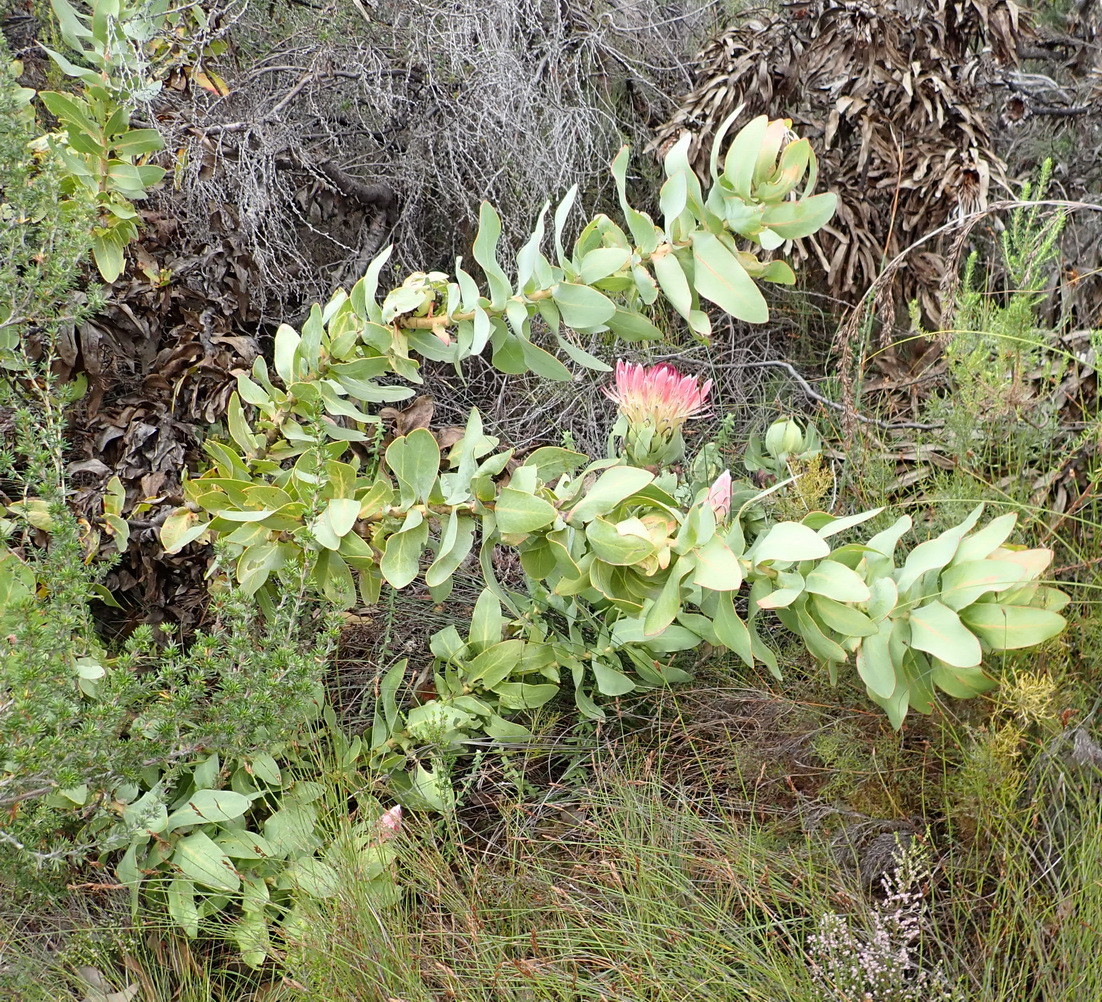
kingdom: Plantae
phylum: Tracheophyta
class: Magnoliopsida
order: Proteales
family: Proteaceae
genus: Protea
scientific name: Protea eximia
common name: Broad-leaved sugarbush
